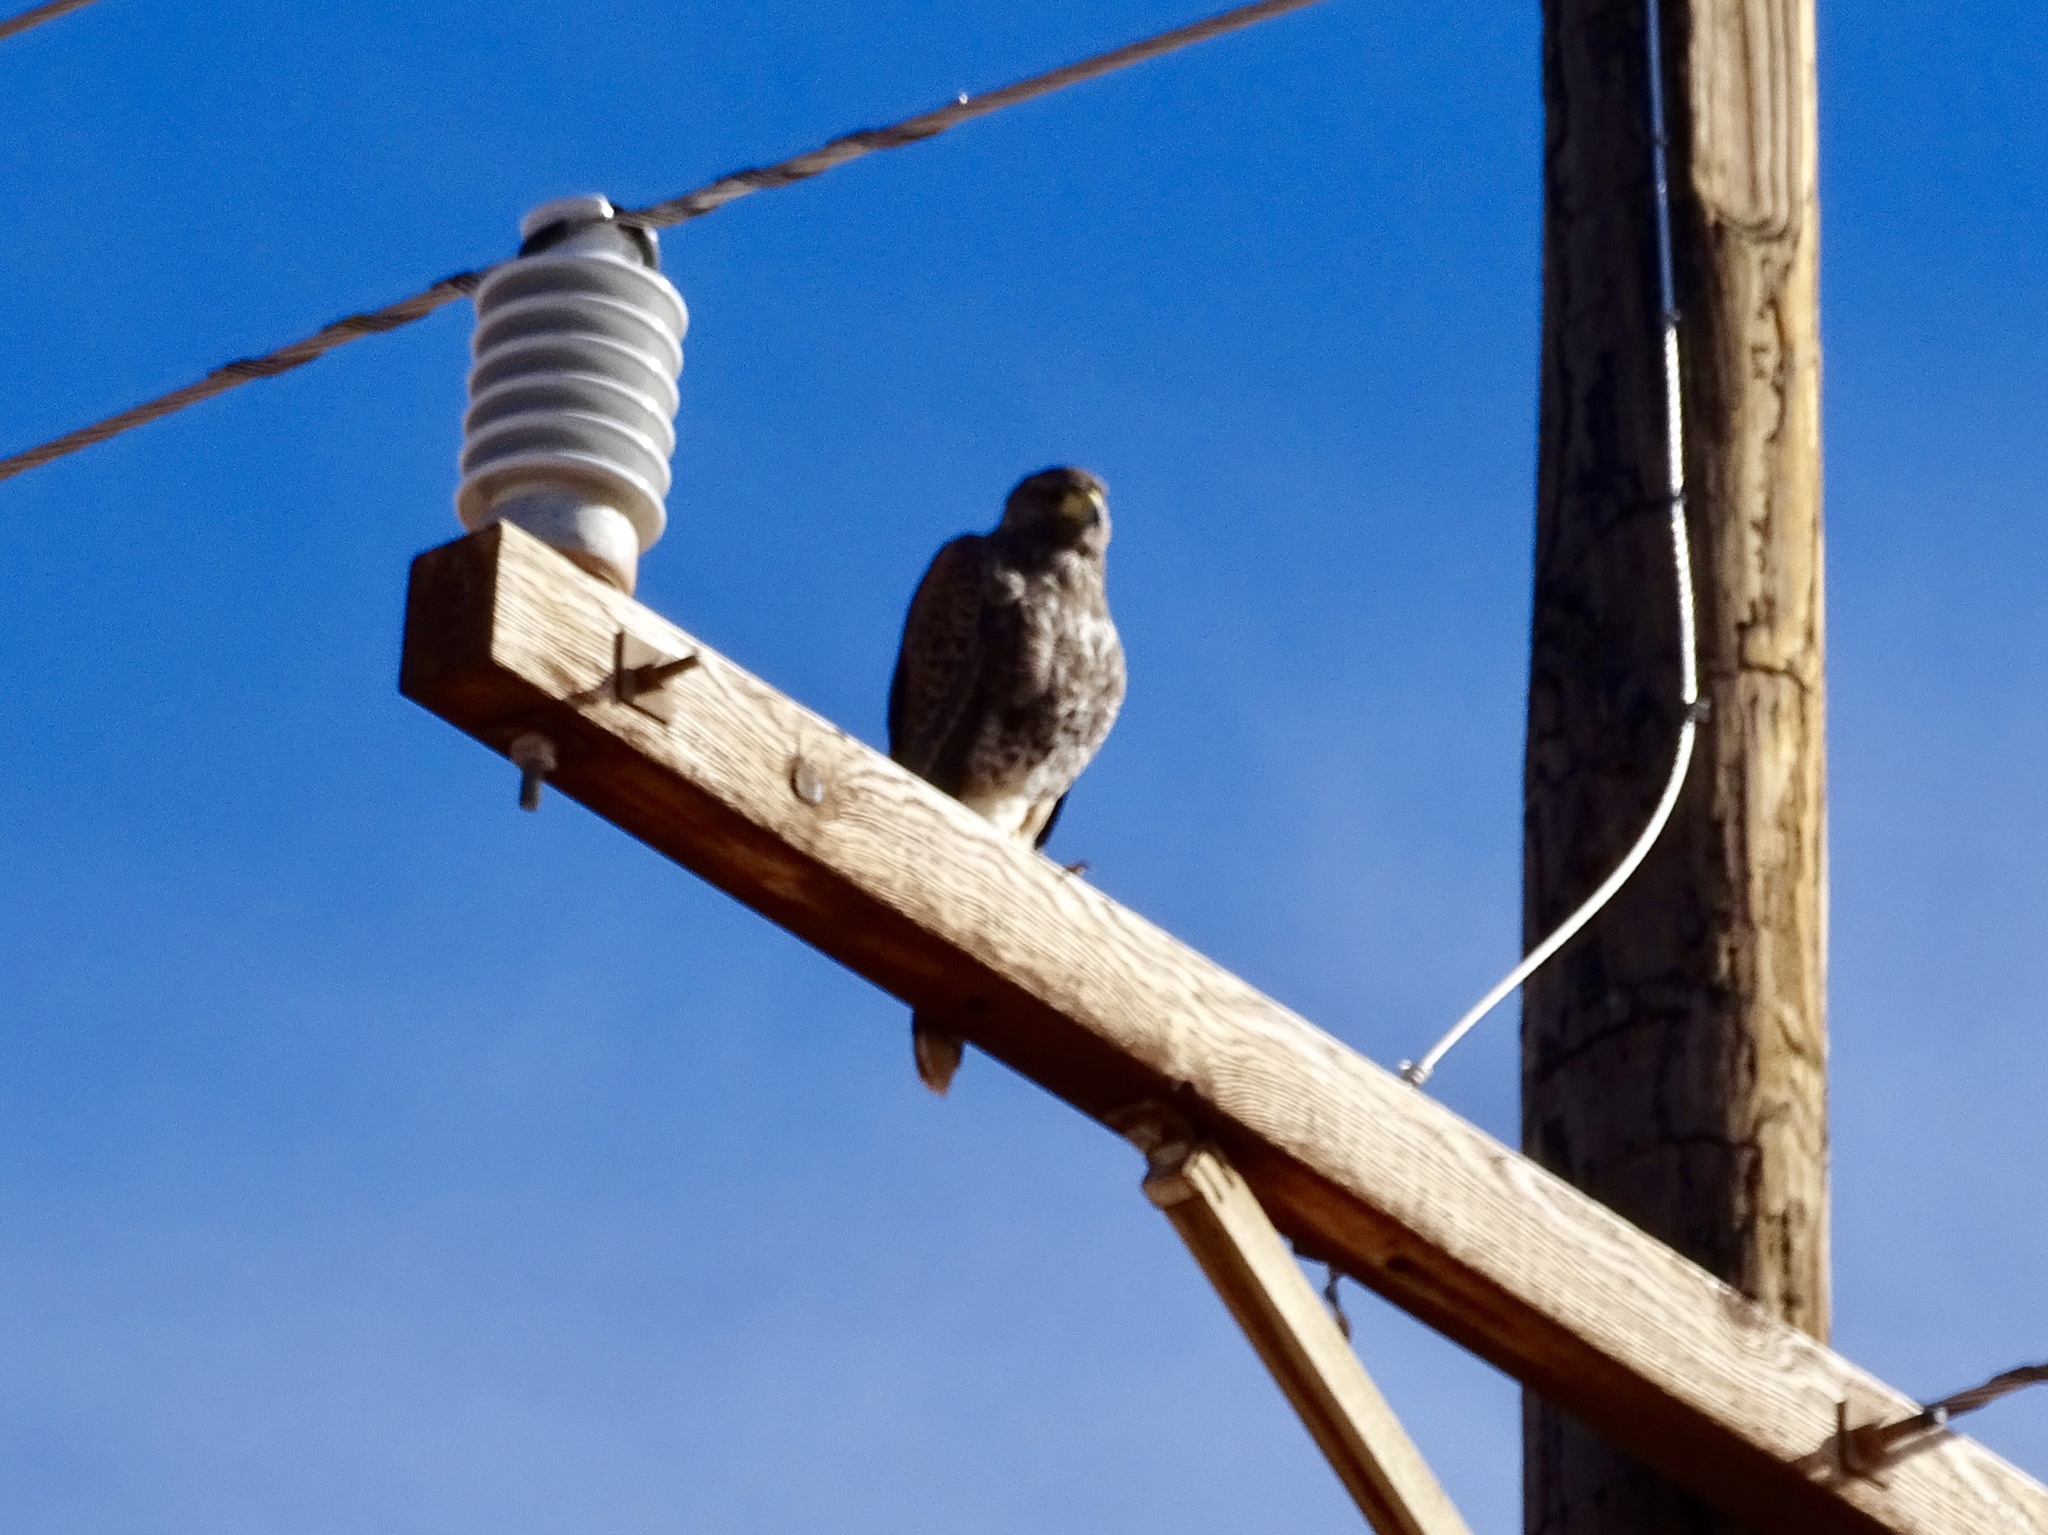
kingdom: Animalia
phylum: Chordata
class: Aves
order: Accipitriformes
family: Accipitridae
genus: Parabuteo
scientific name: Parabuteo unicinctus
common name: Harris's hawk
